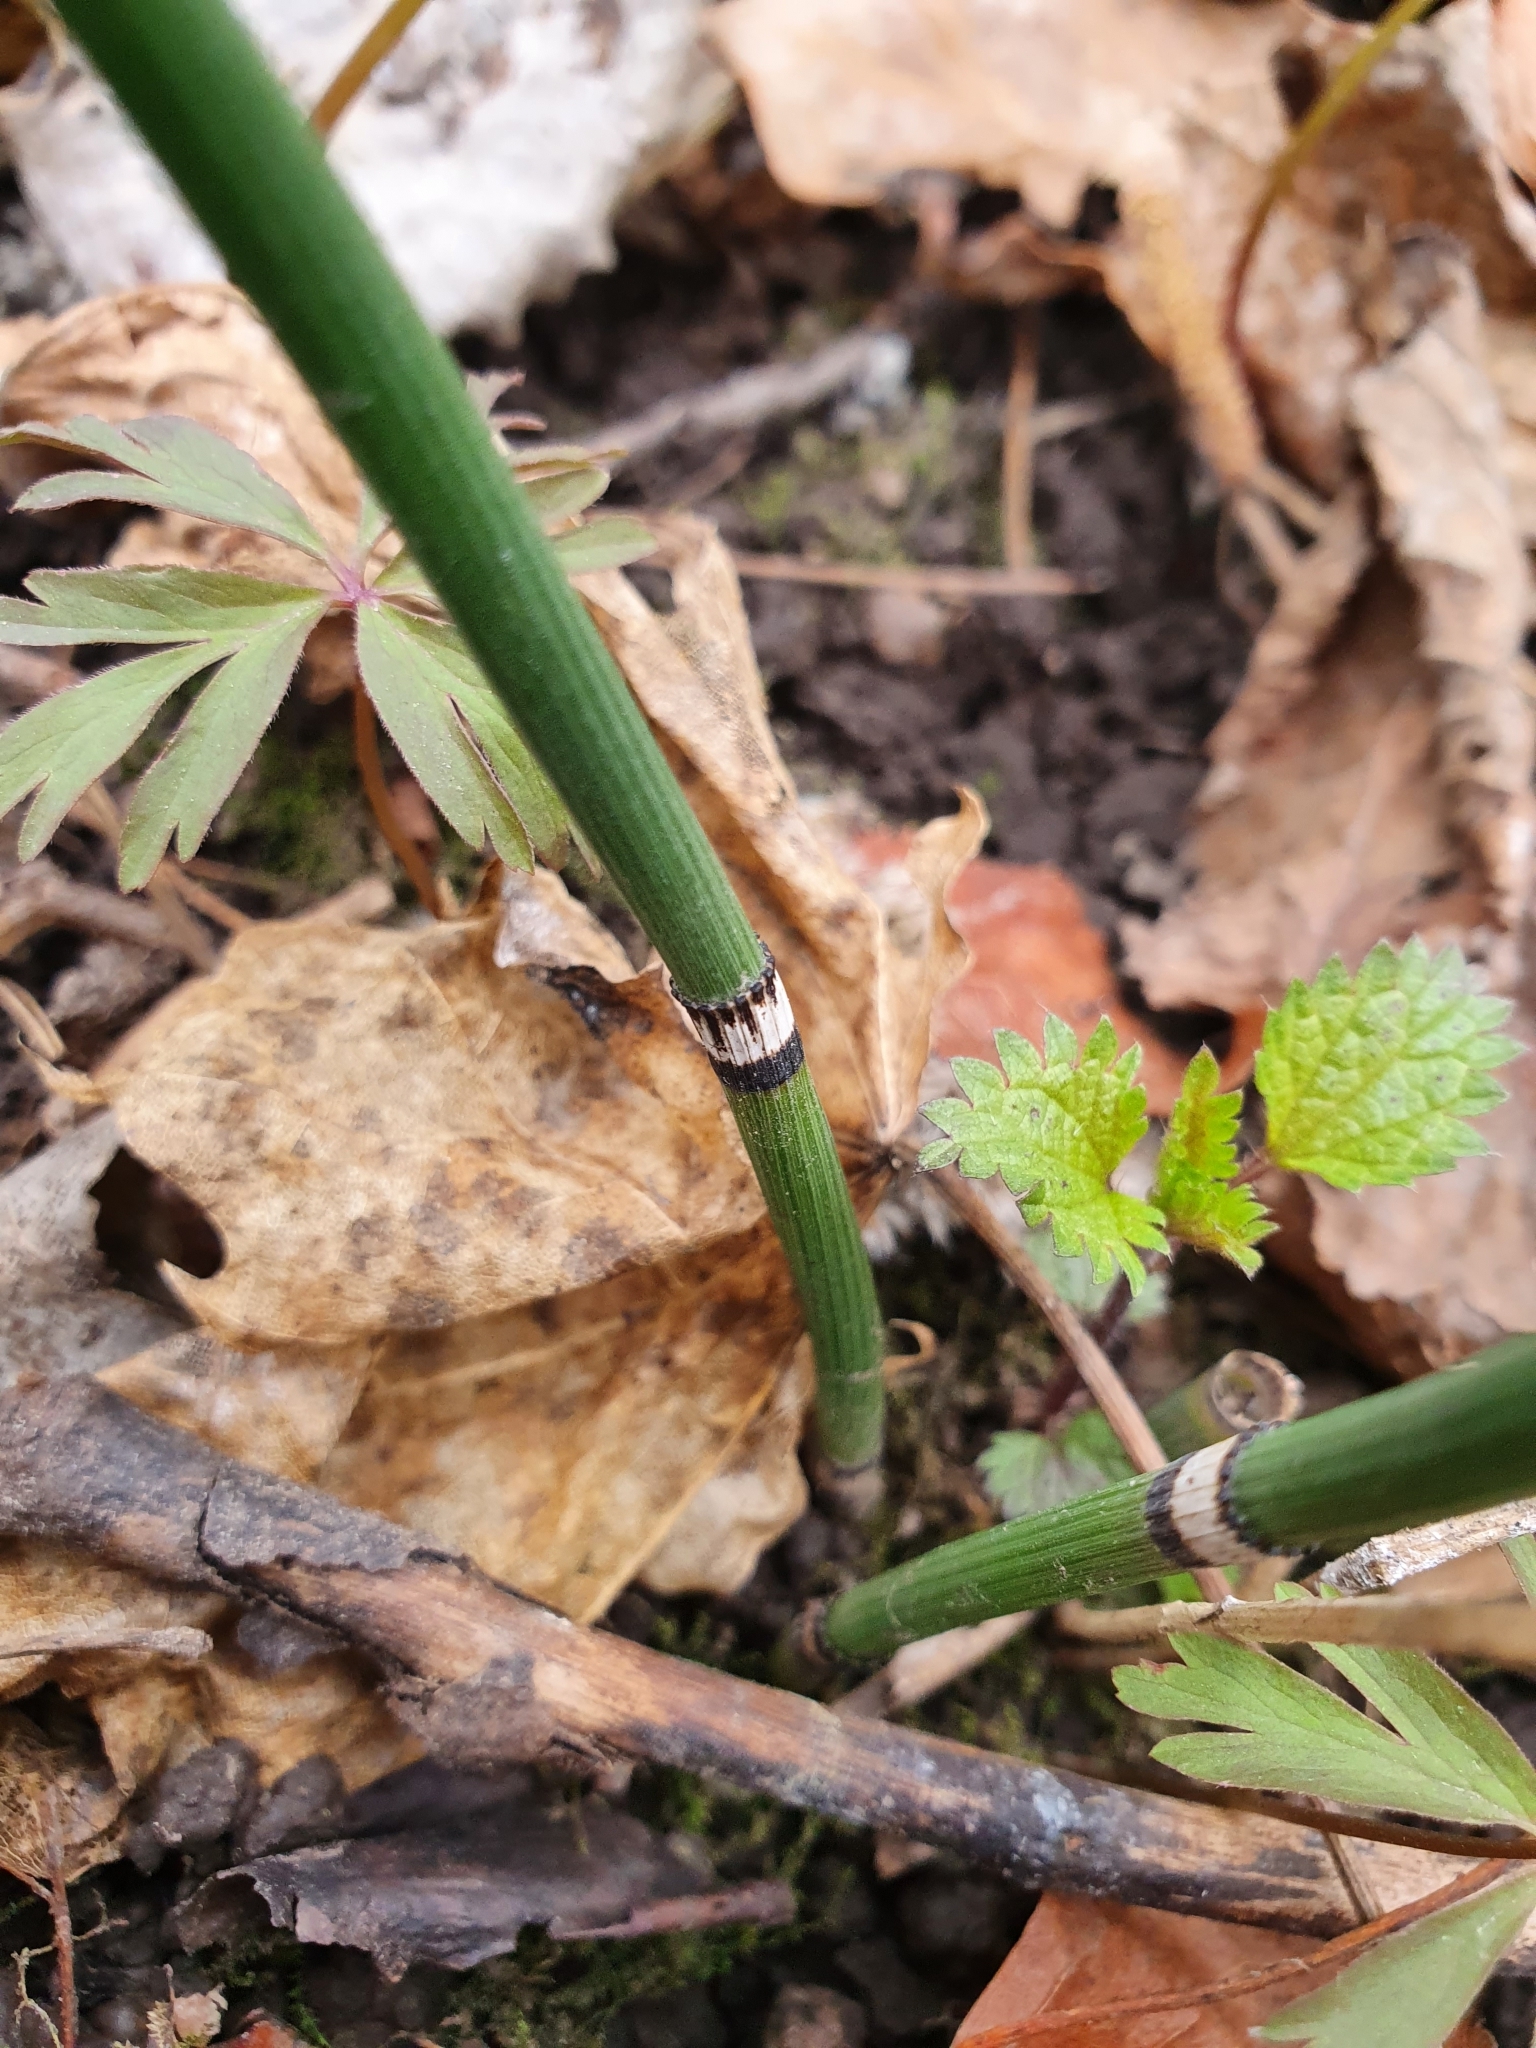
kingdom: Plantae
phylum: Tracheophyta
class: Polypodiopsida
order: Equisetales
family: Equisetaceae
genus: Equisetum
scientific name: Equisetum hyemale
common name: Rough horsetail
